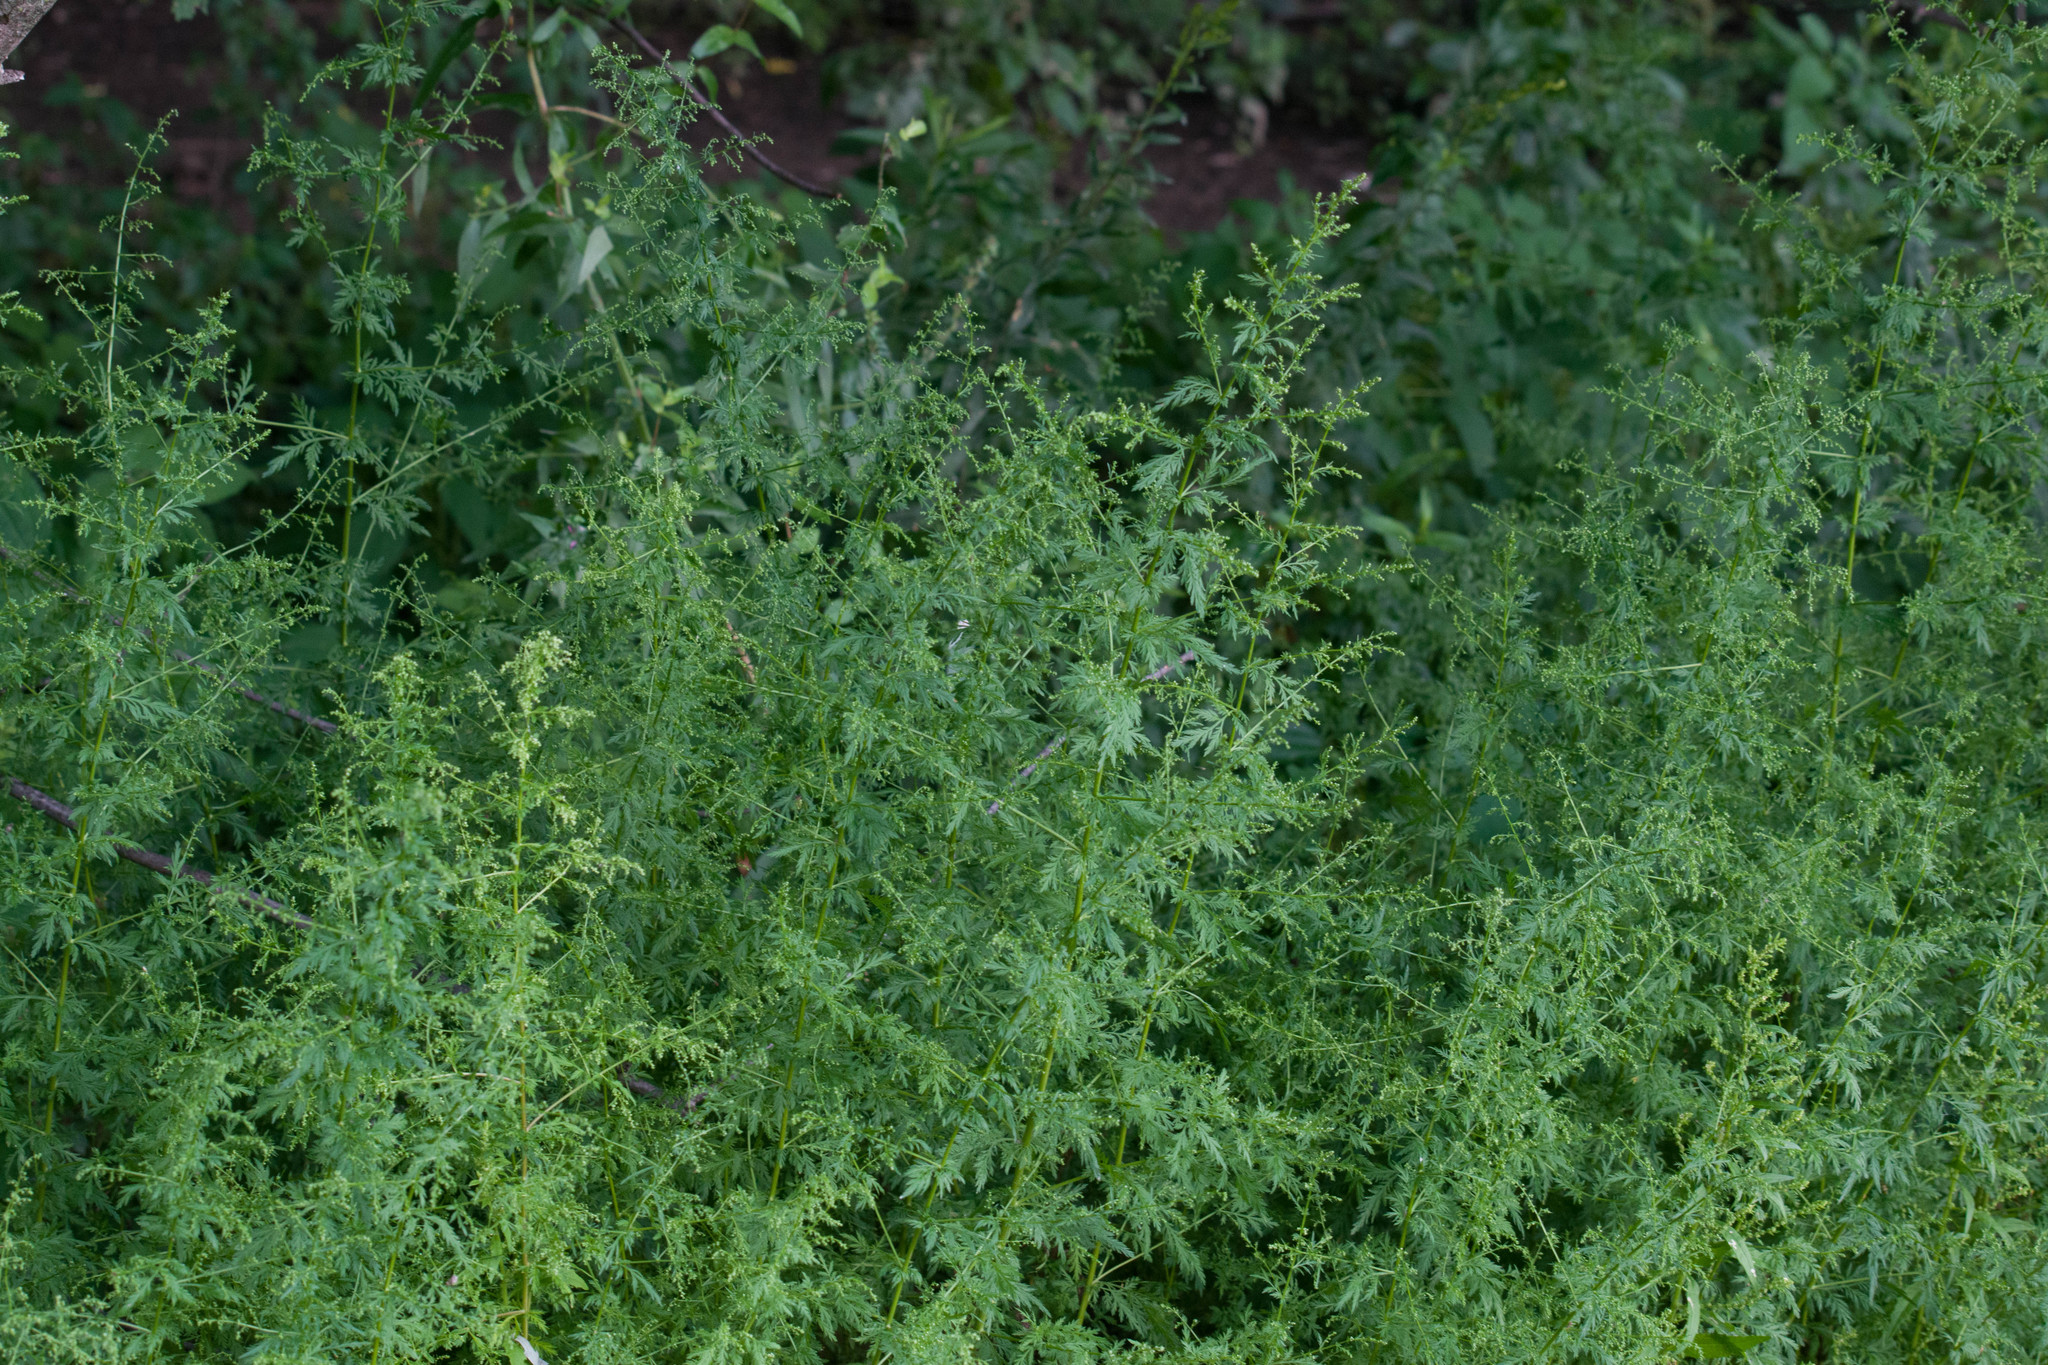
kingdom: Plantae
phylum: Tracheophyta
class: Magnoliopsida
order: Asterales
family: Asteraceae
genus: Artemisia
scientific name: Artemisia annua
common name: Sweet sagewort
